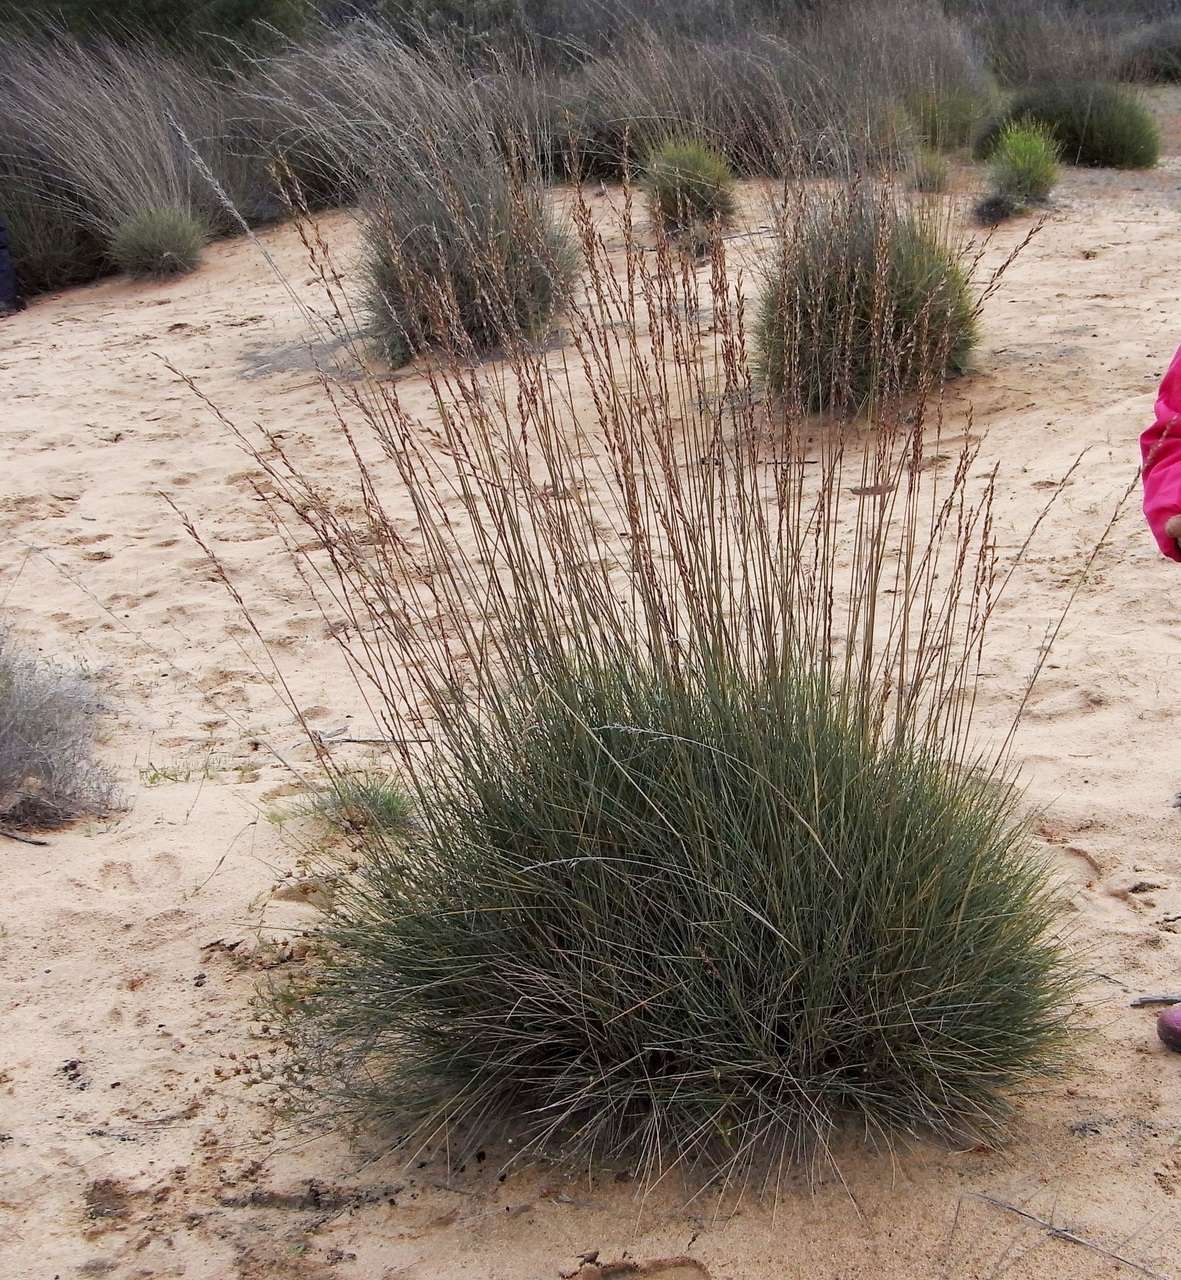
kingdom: Plantae
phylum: Tracheophyta
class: Liliopsida
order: Poales
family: Poaceae
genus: Triodia
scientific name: Triodia scariosa
